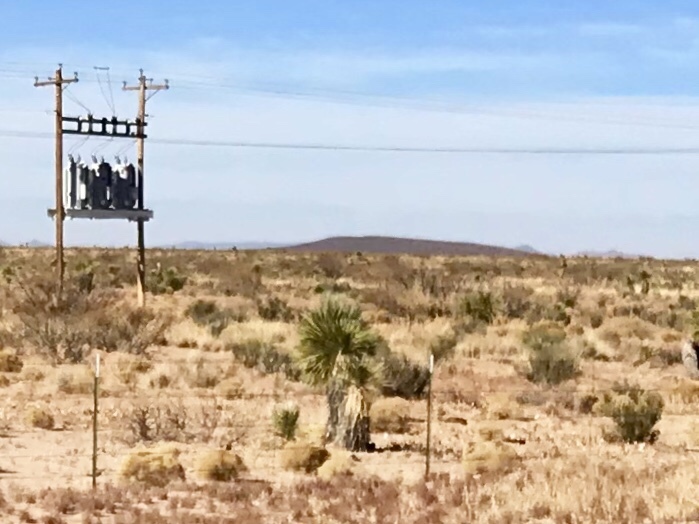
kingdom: Plantae
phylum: Tracheophyta
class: Liliopsida
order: Asparagales
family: Asparagaceae
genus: Yucca
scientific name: Yucca elata
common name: Palmella
